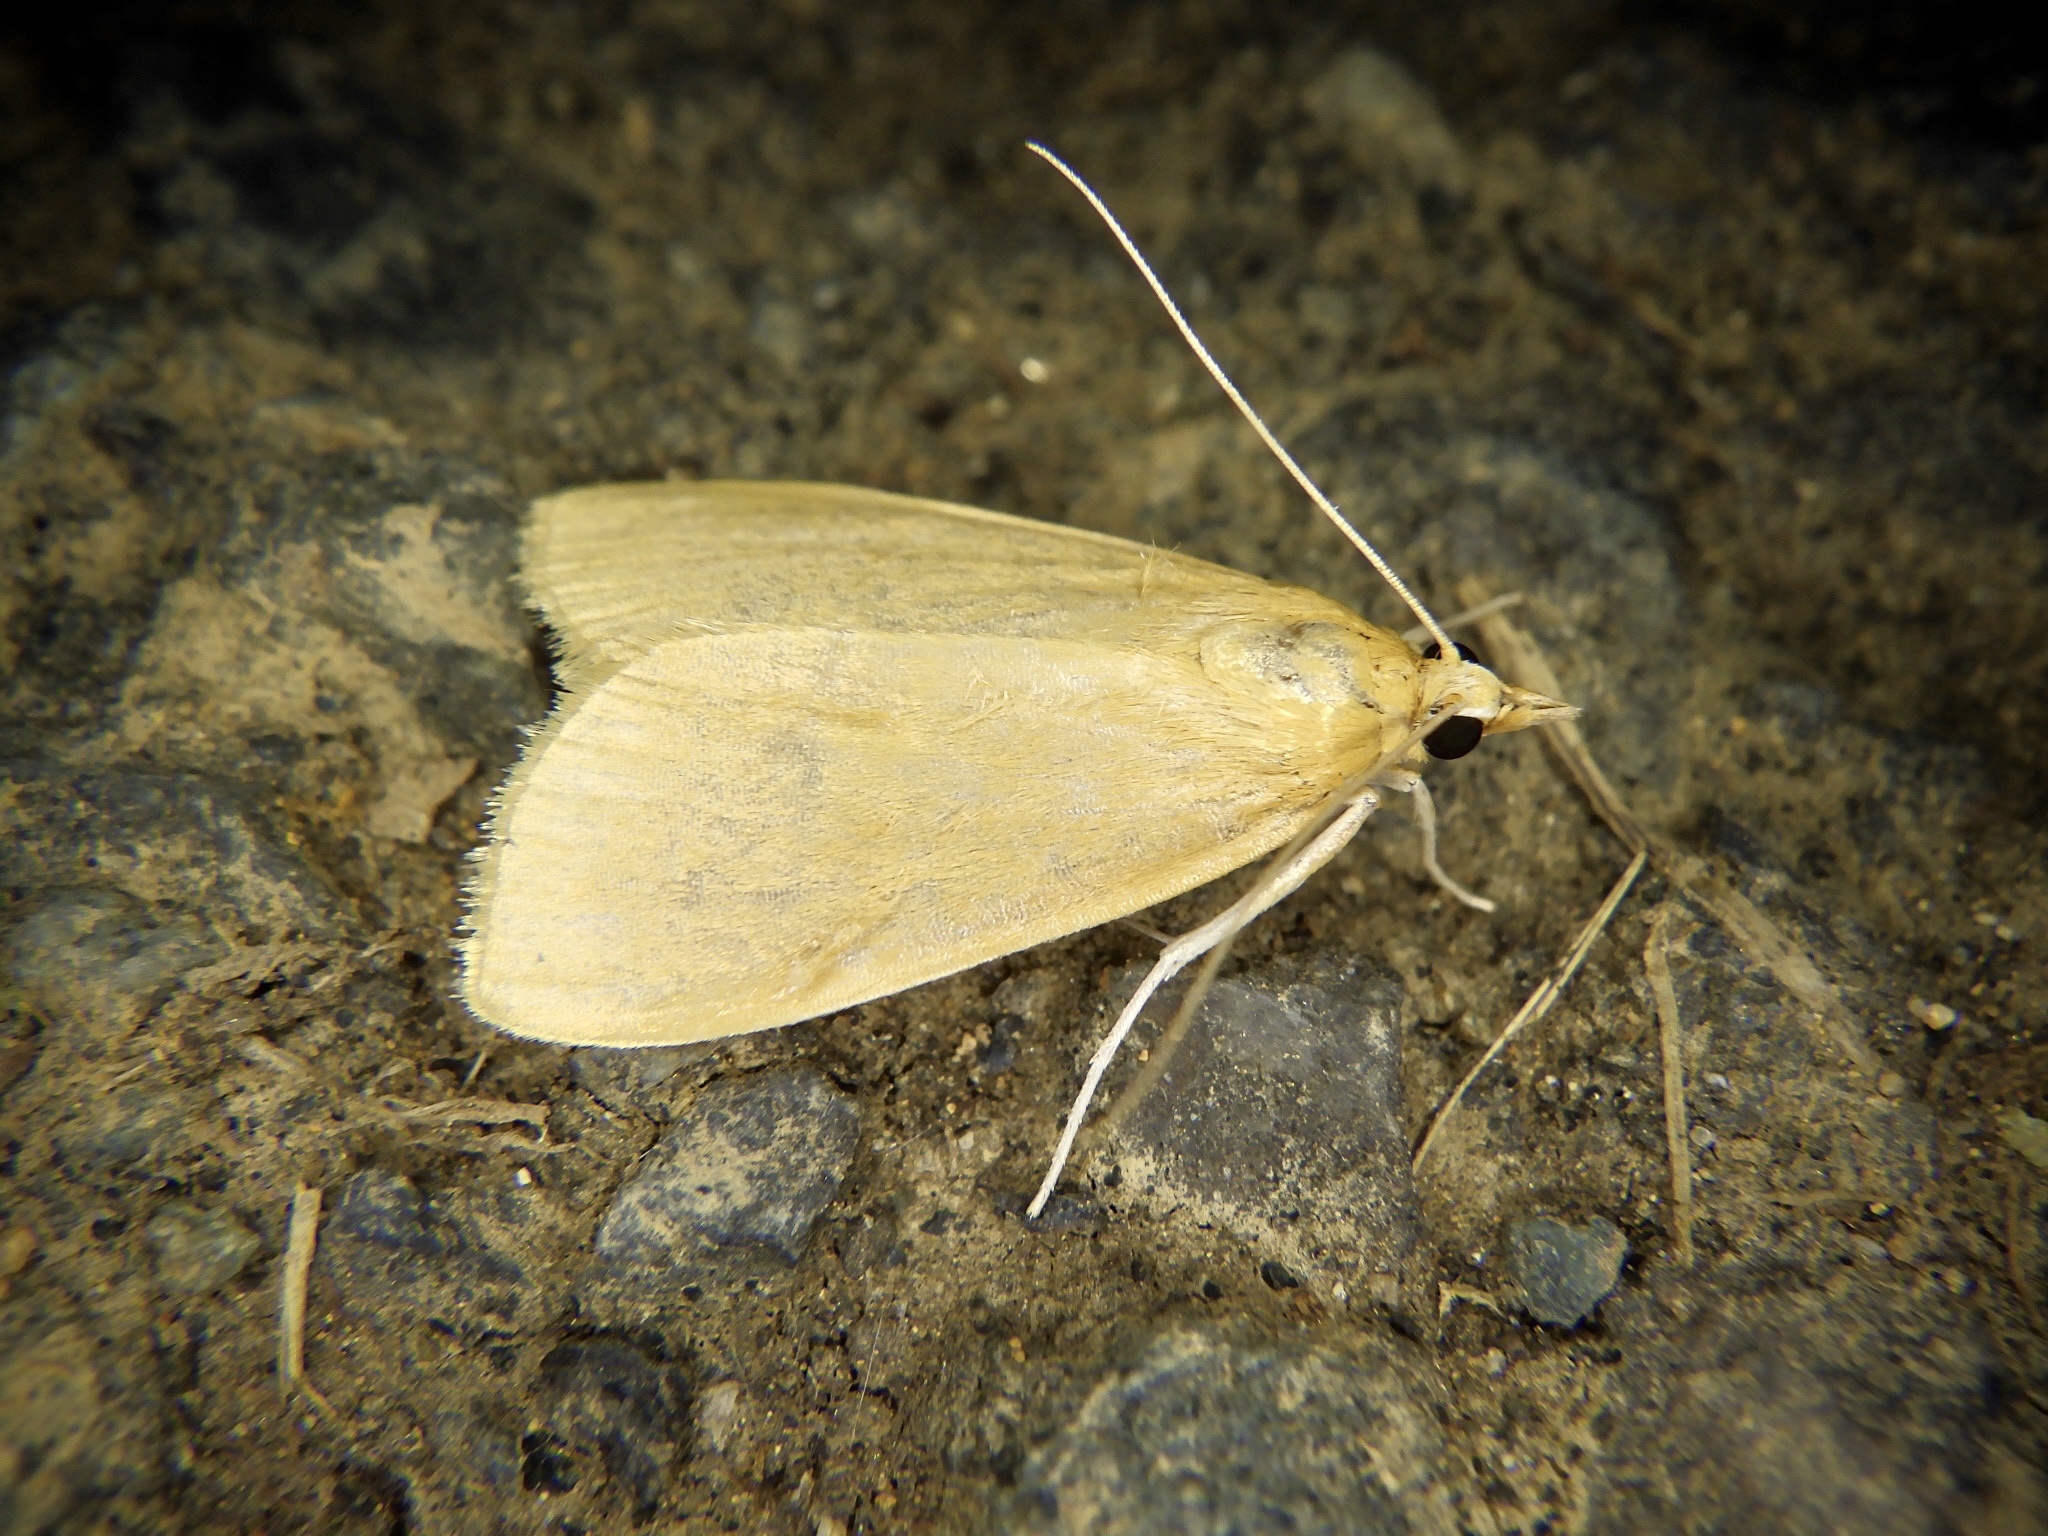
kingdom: Animalia
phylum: Arthropoda
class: Insecta
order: Lepidoptera
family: Crambidae
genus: Prodasycnemis
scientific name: Prodasycnemis inornata
